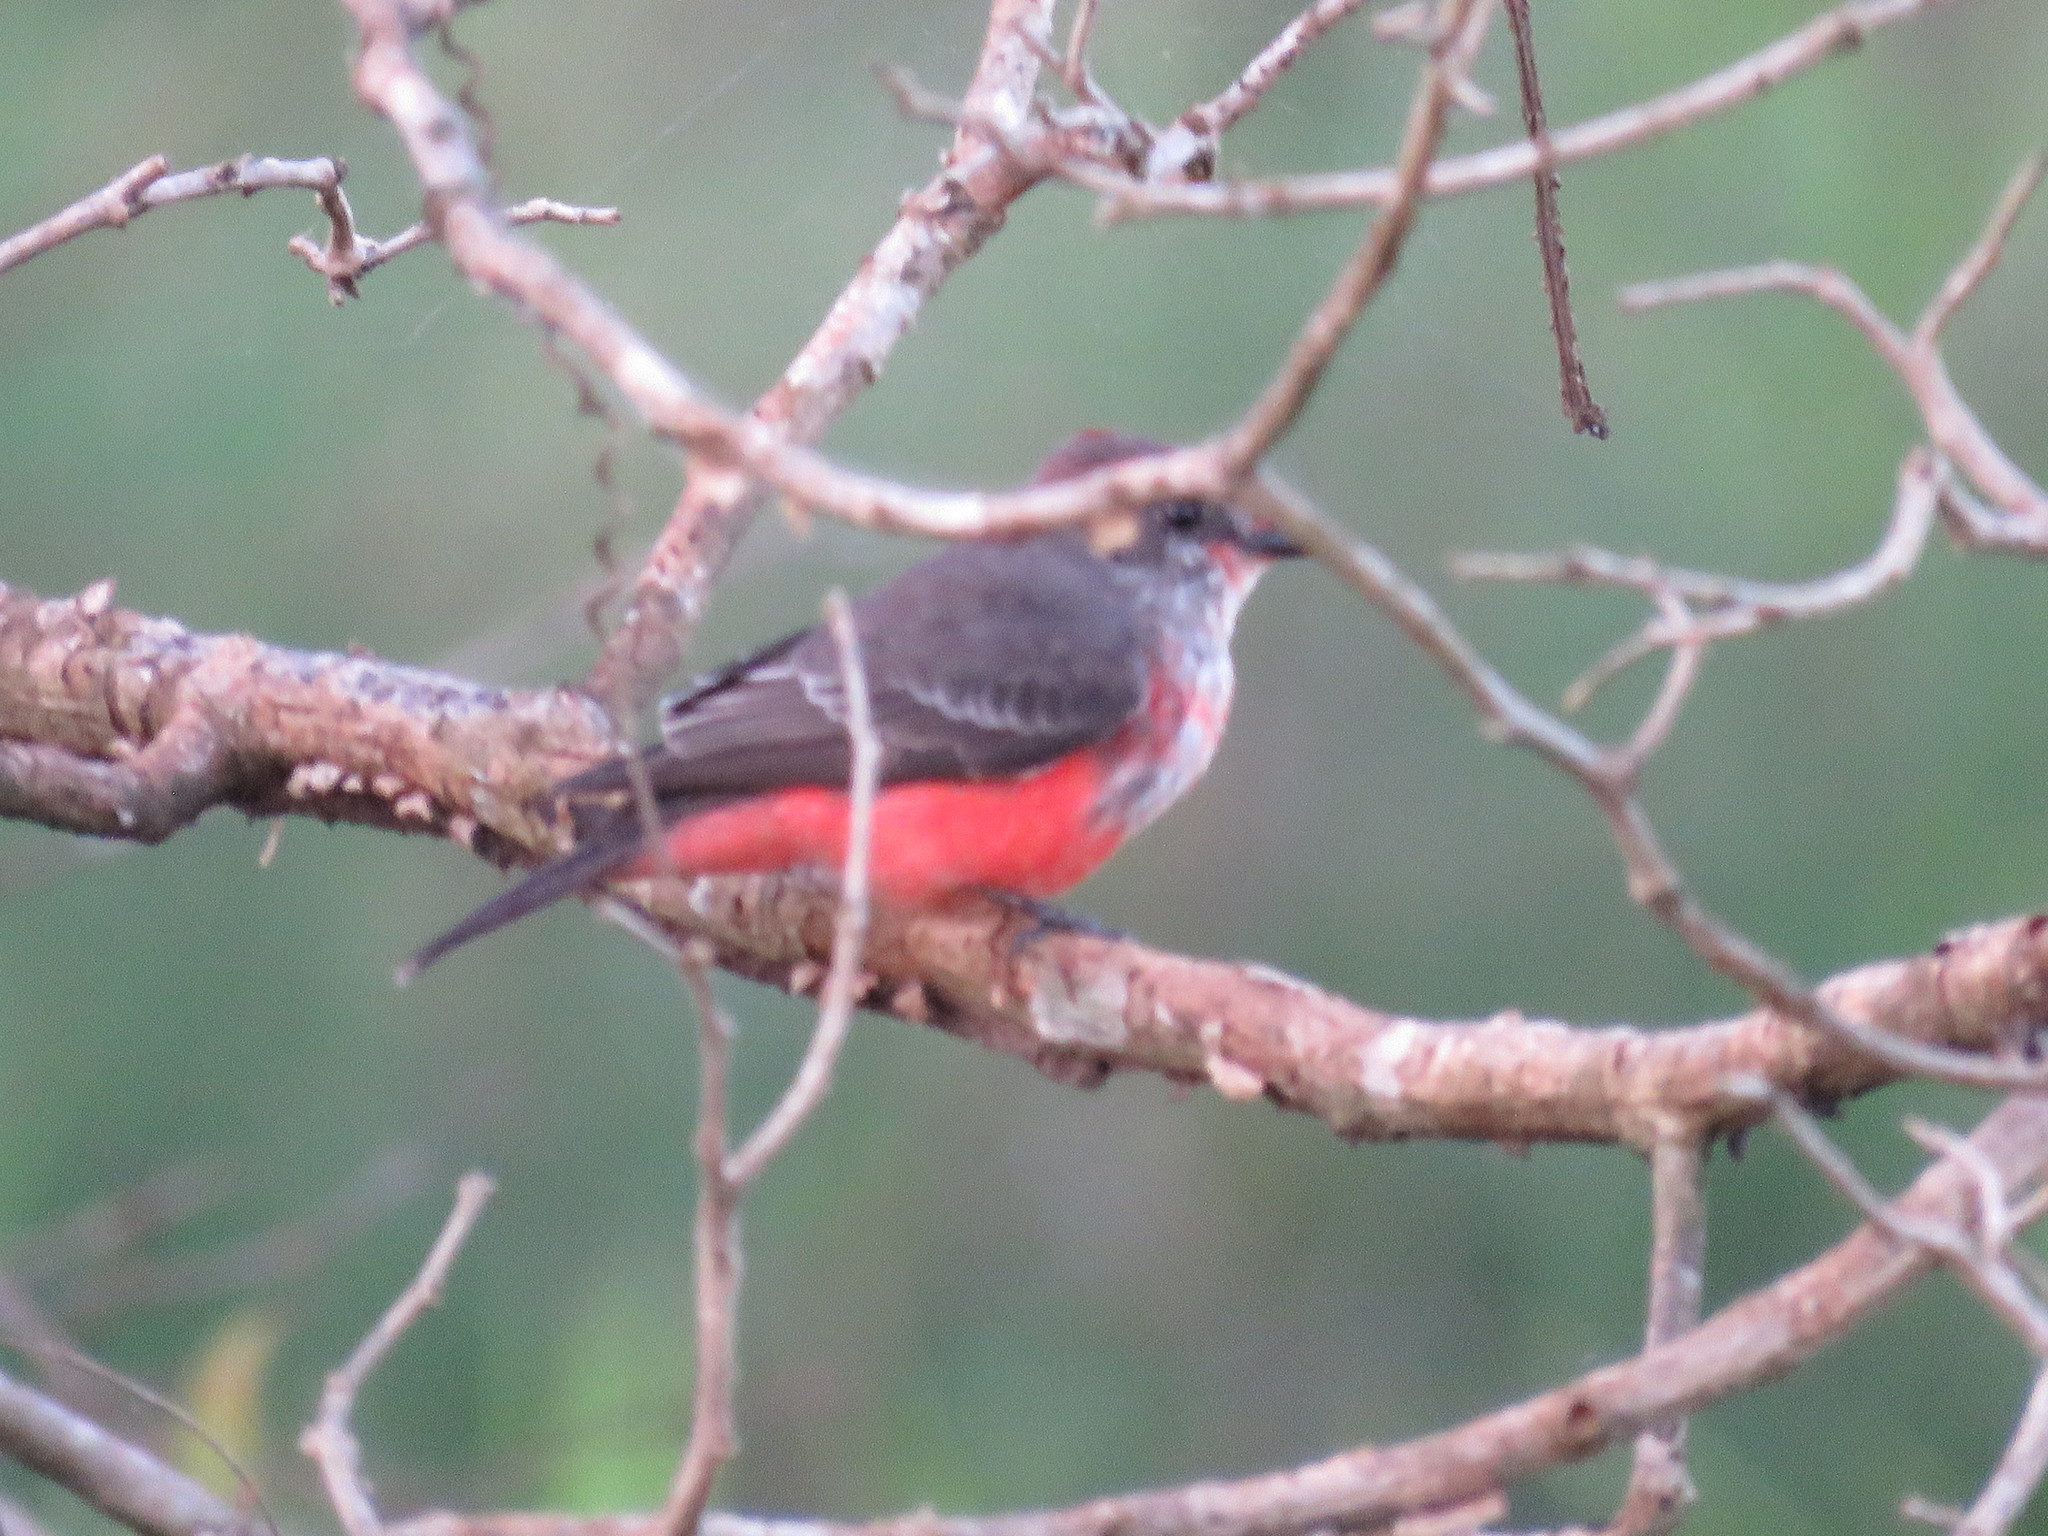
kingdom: Animalia
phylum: Chordata
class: Aves
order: Passeriformes
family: Tyrannidae
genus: Pyrocephalus
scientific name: Pyrocephalus rubinus
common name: Vermilion flycatcher
